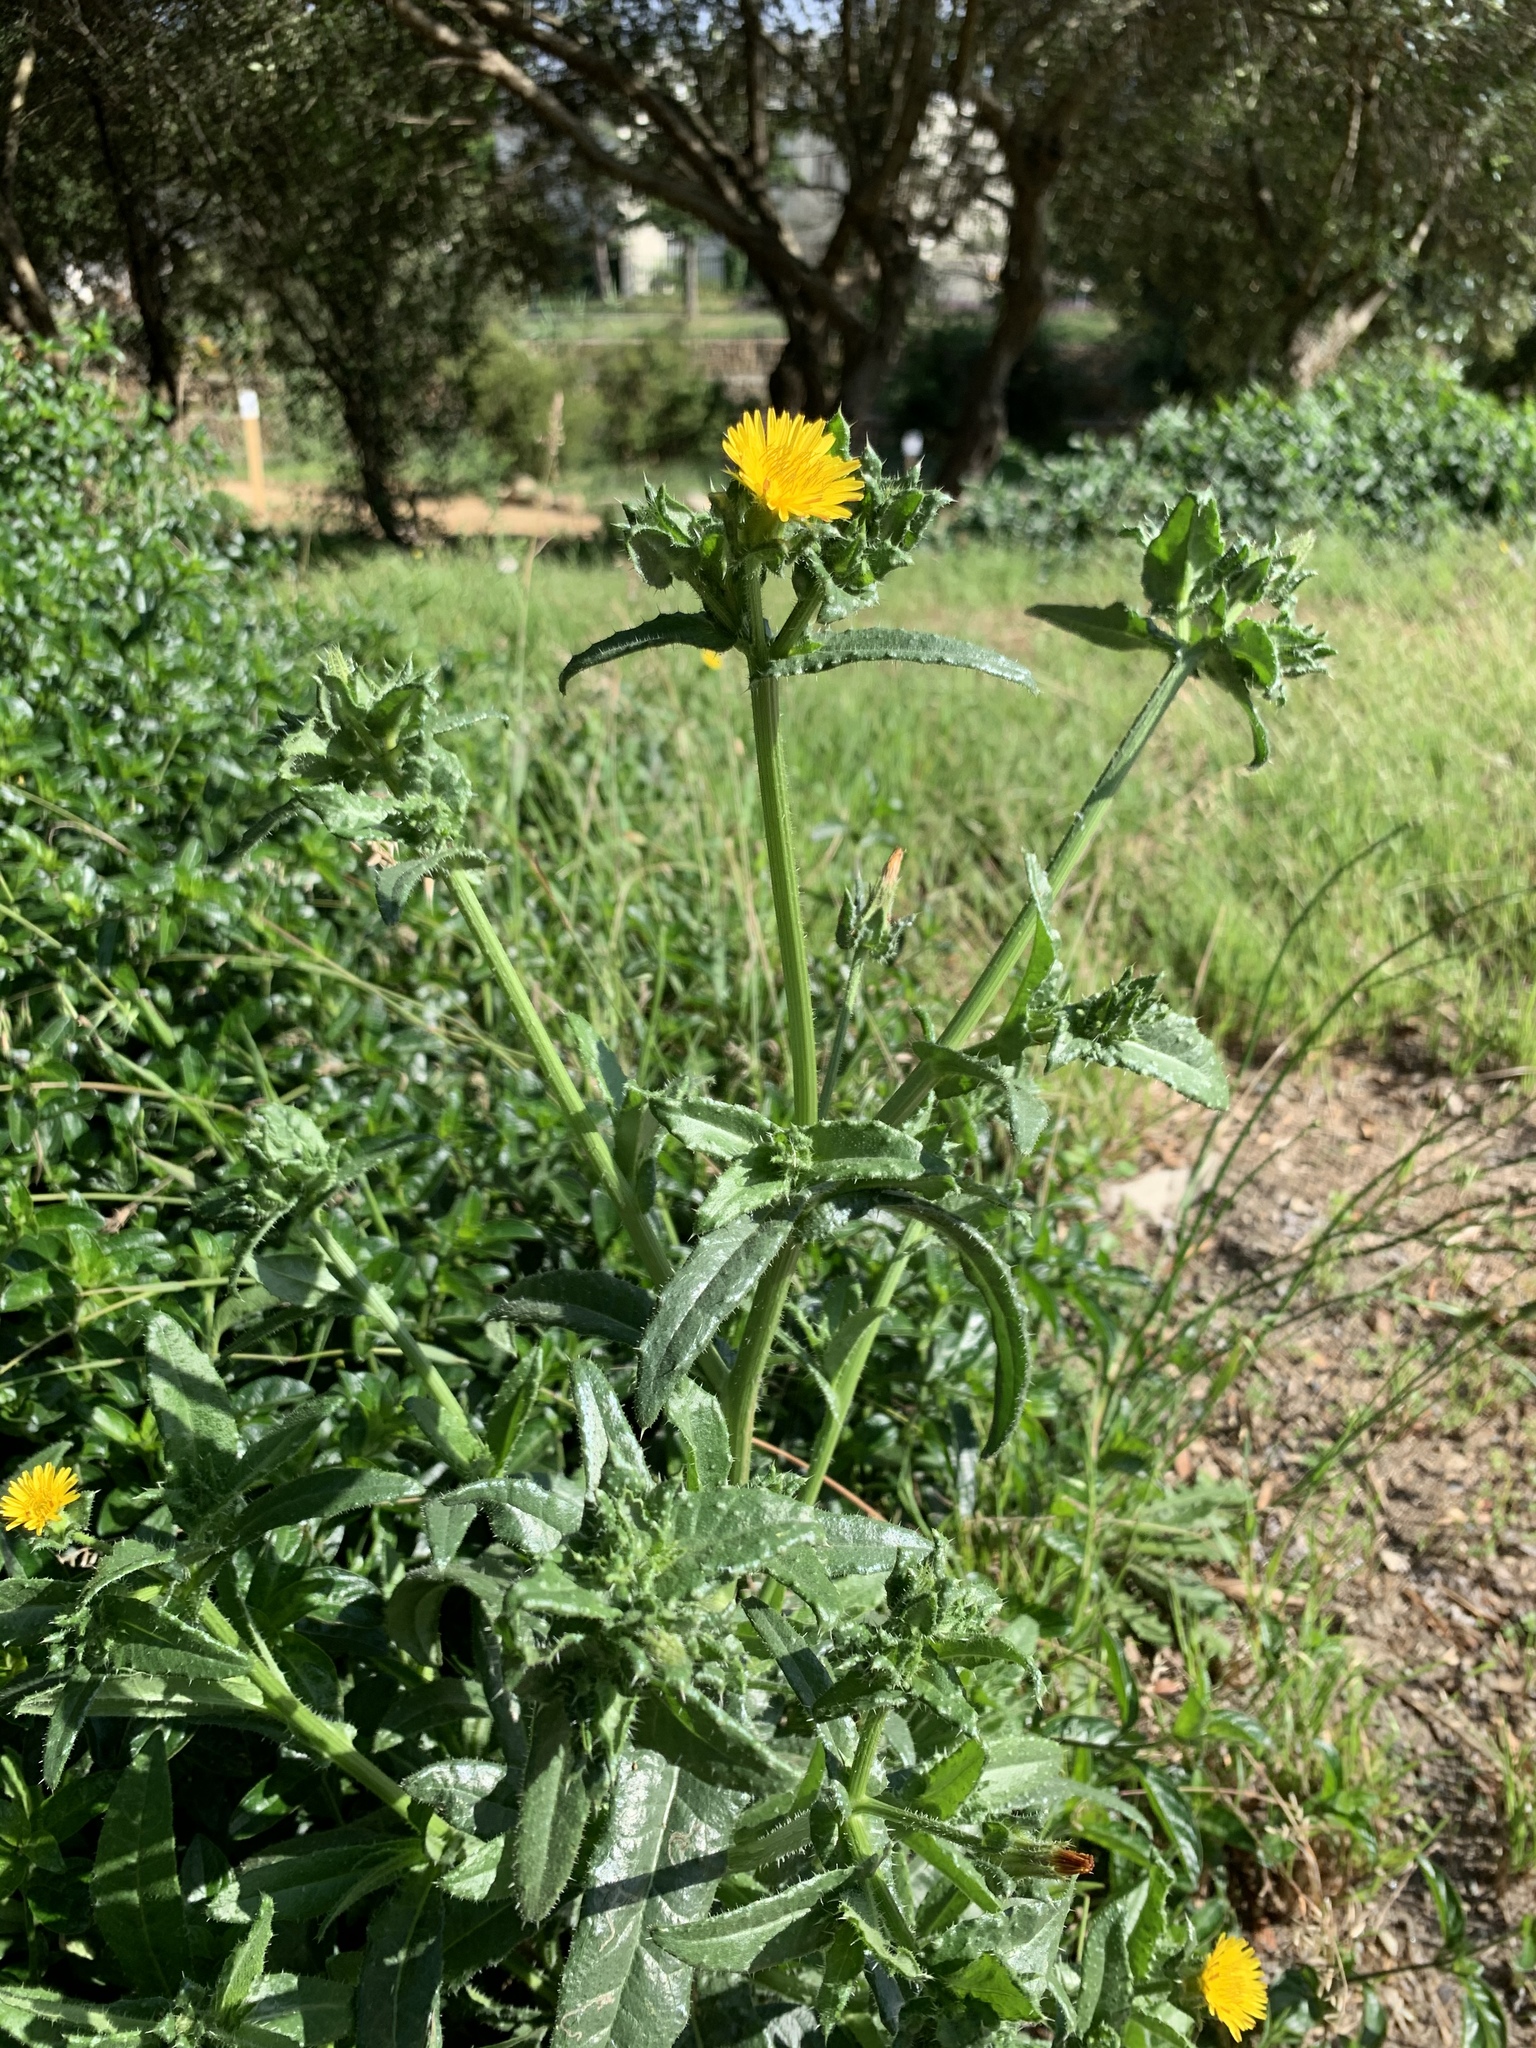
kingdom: Plantae
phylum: Tracheophyta
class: Magnoliopsida
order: Asterales
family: Asteraceae
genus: Helminthotheca
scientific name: Helminthotheca echioides
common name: Ox-tongue
